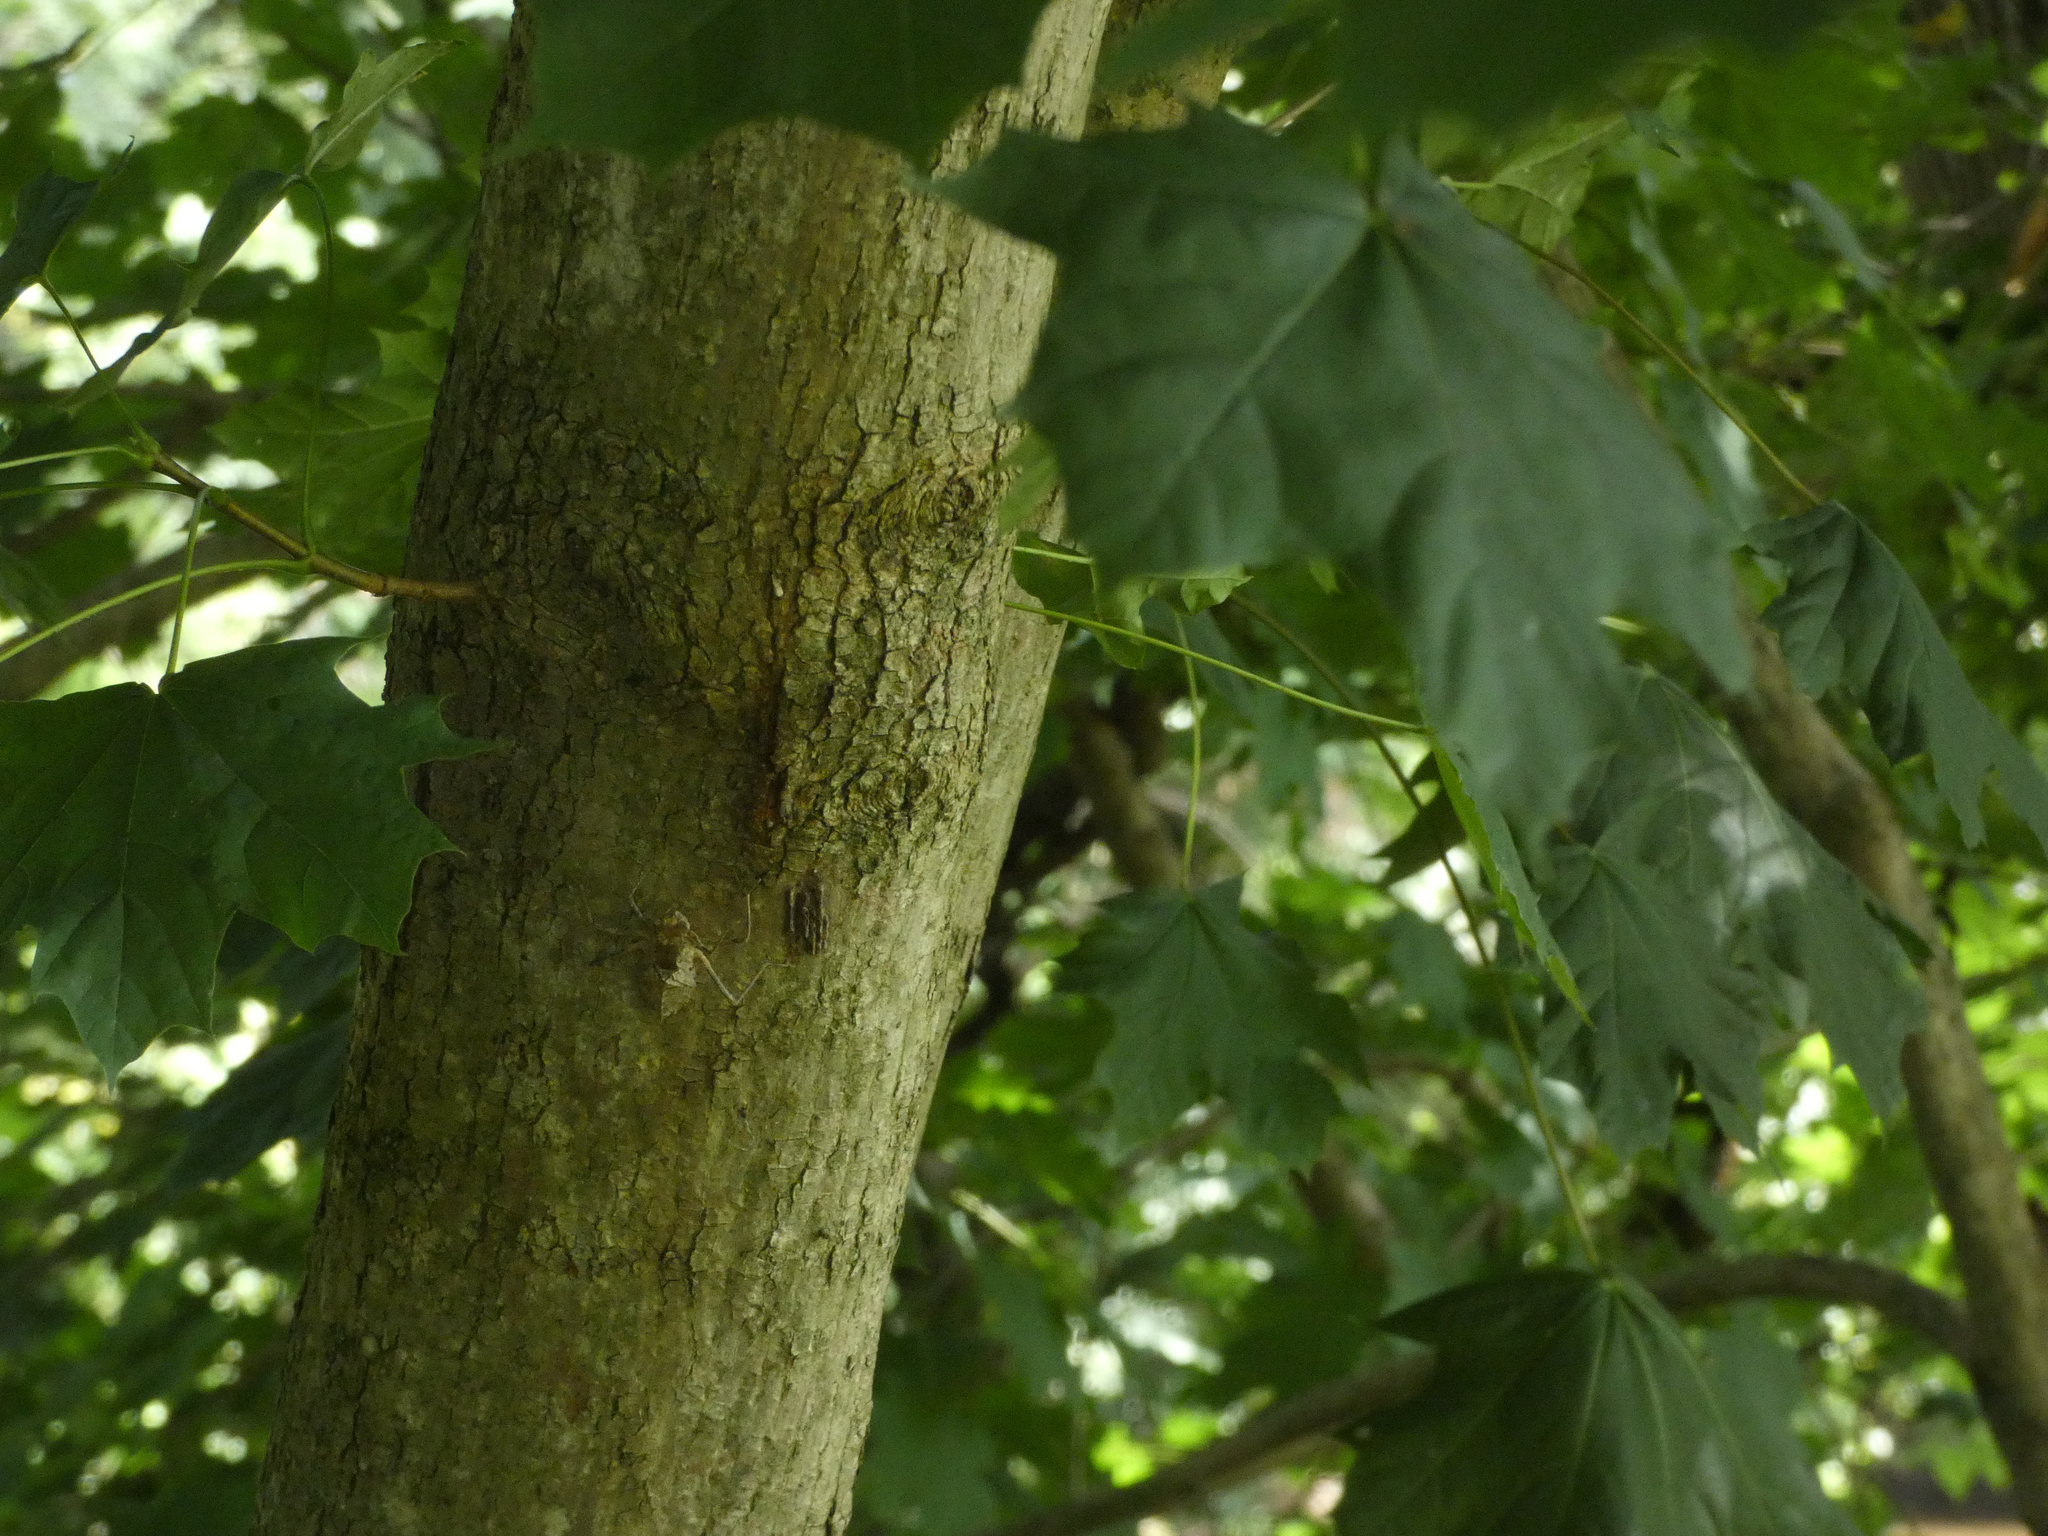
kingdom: Plantae
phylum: Tracheophyta
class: Magnoliopsida
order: Sapindales
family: Sapindaceae
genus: Acer
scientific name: Acer platanoides
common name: Norway maple
